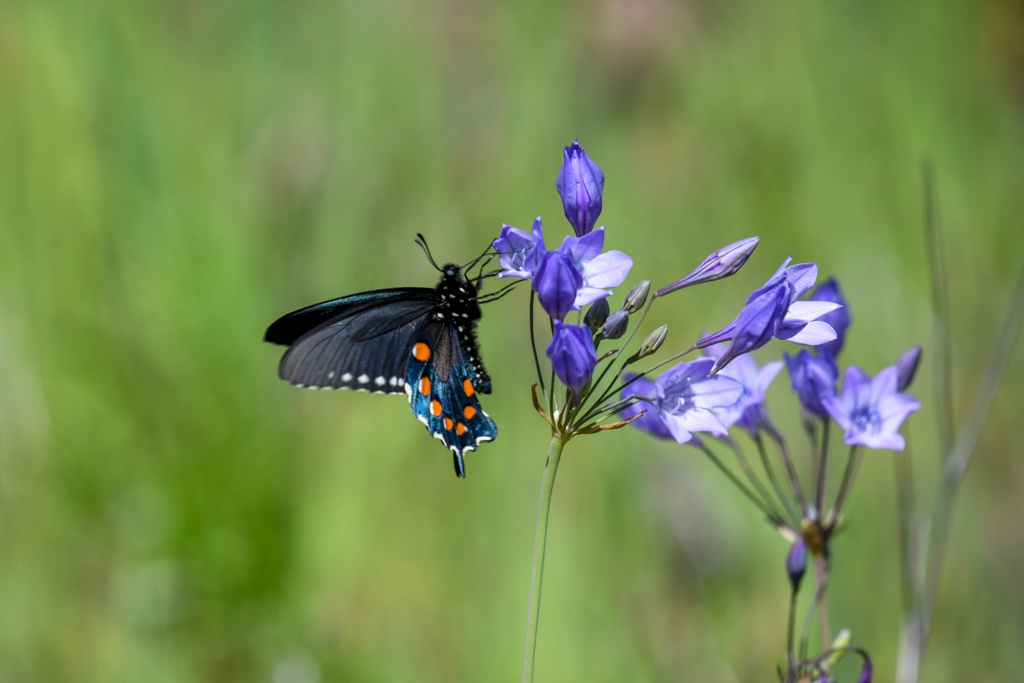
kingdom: Animalia
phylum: Arthropoda
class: Insecta
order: Lepidoptera
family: Papilionidae
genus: Battus
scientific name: Battus philenor
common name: Pipevine swallowtail
